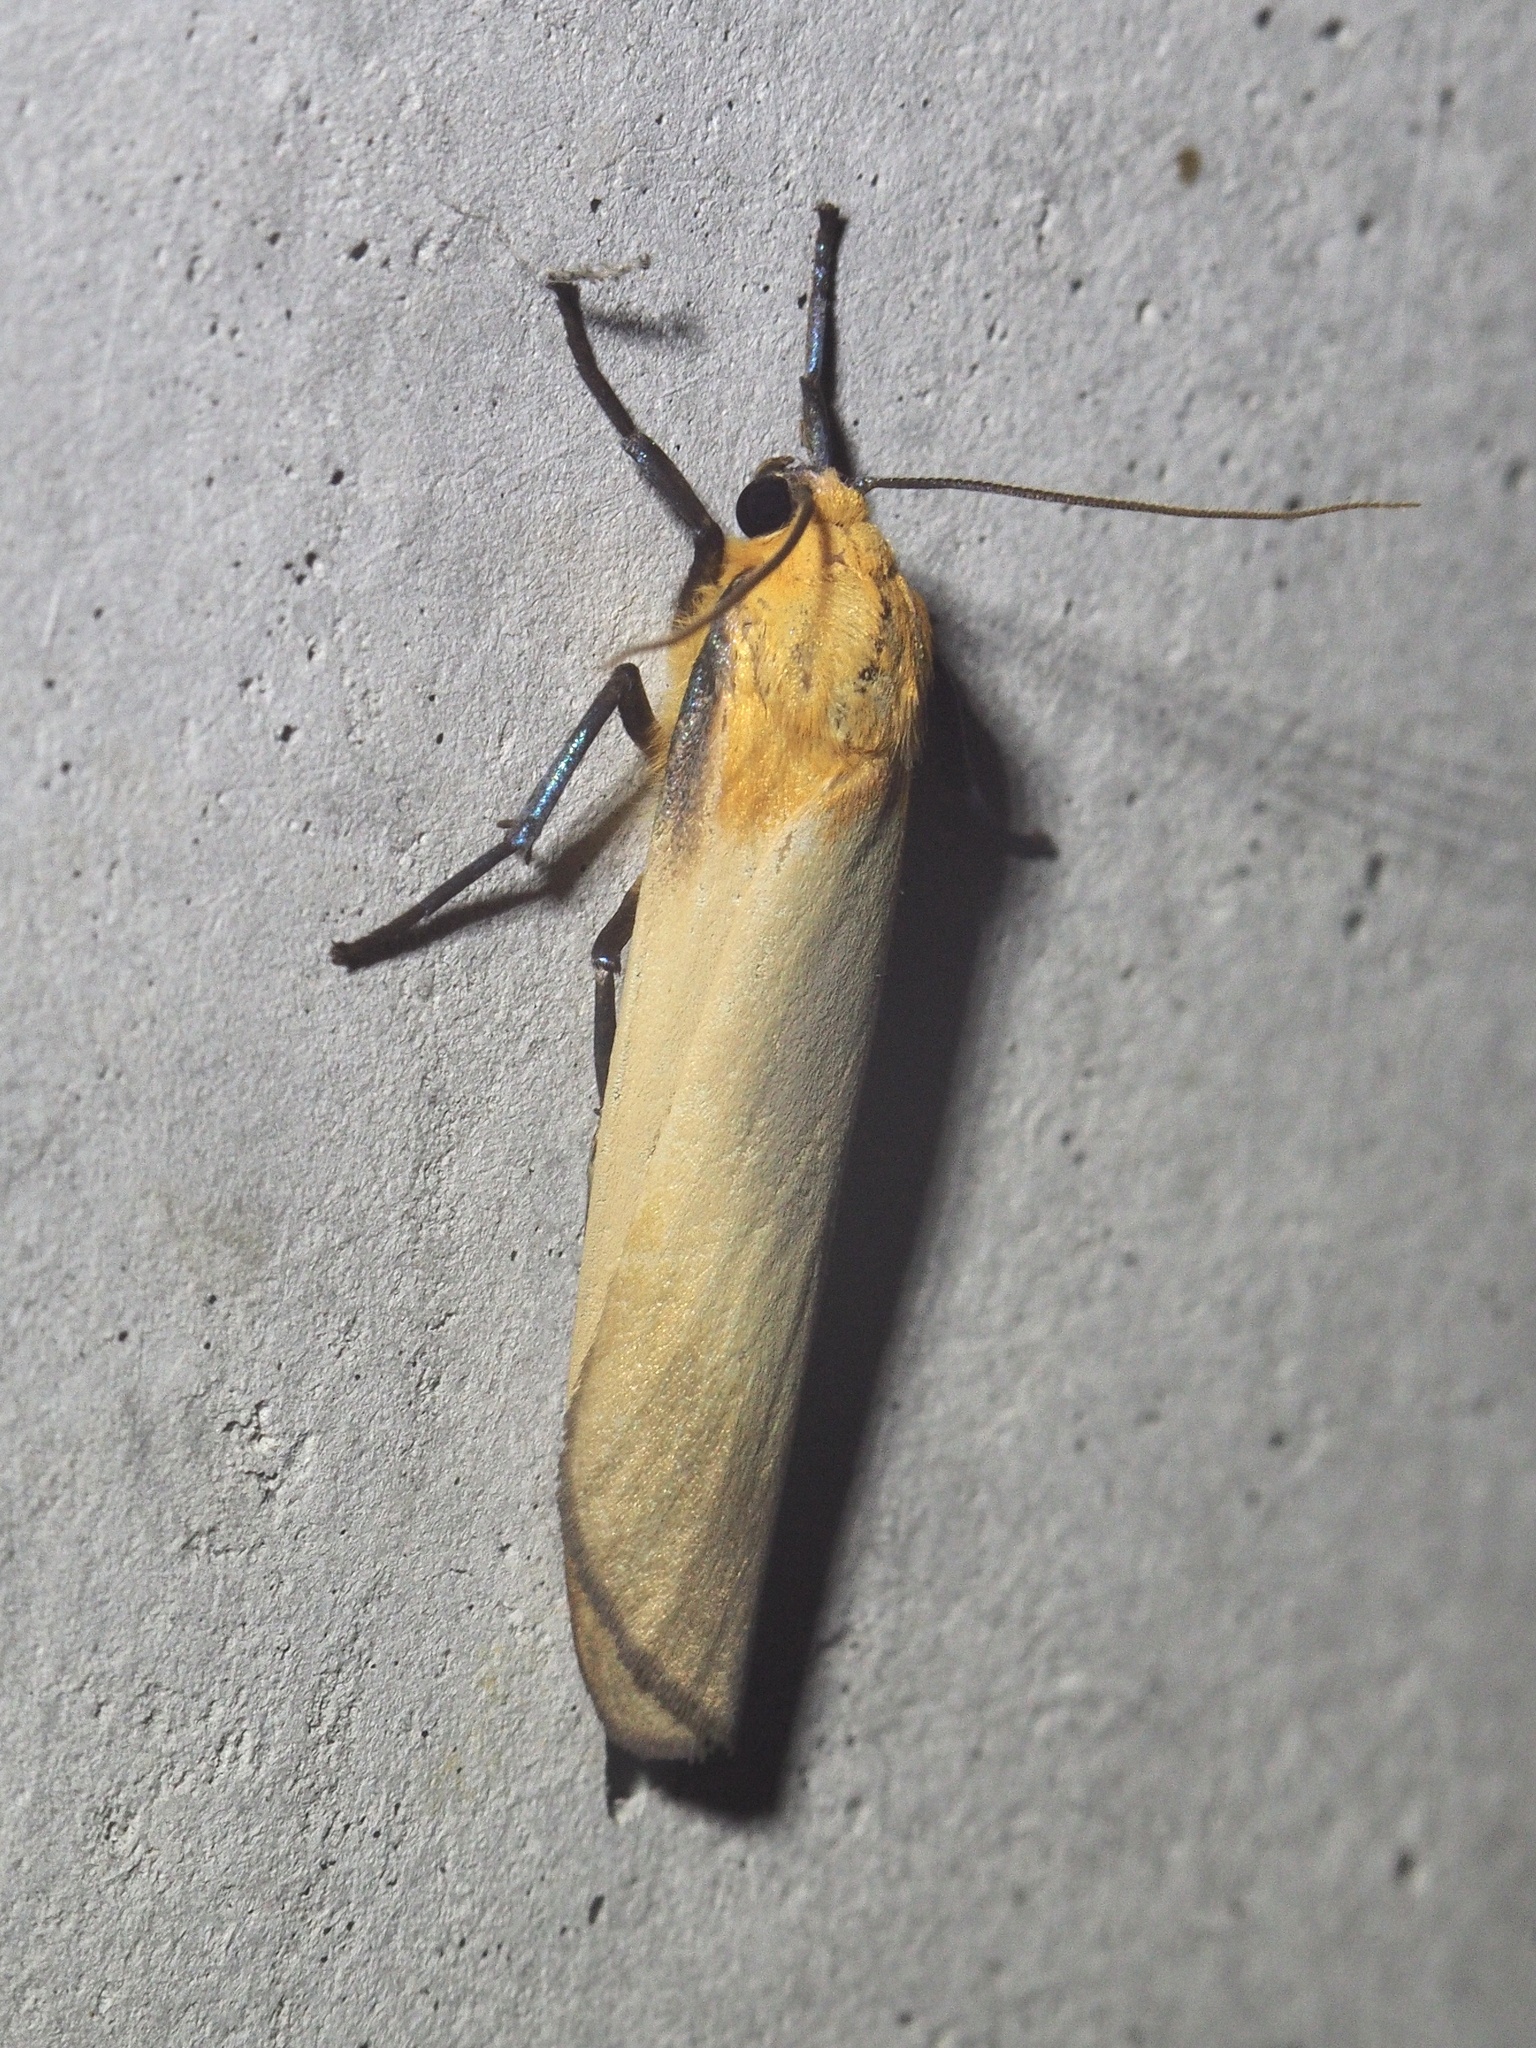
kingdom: Animalia
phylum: Arthropoda
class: Insecta
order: Lepidoptera
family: Erebidae
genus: Lithosia
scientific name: Lithosia quadra
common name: Four-spotted footman
